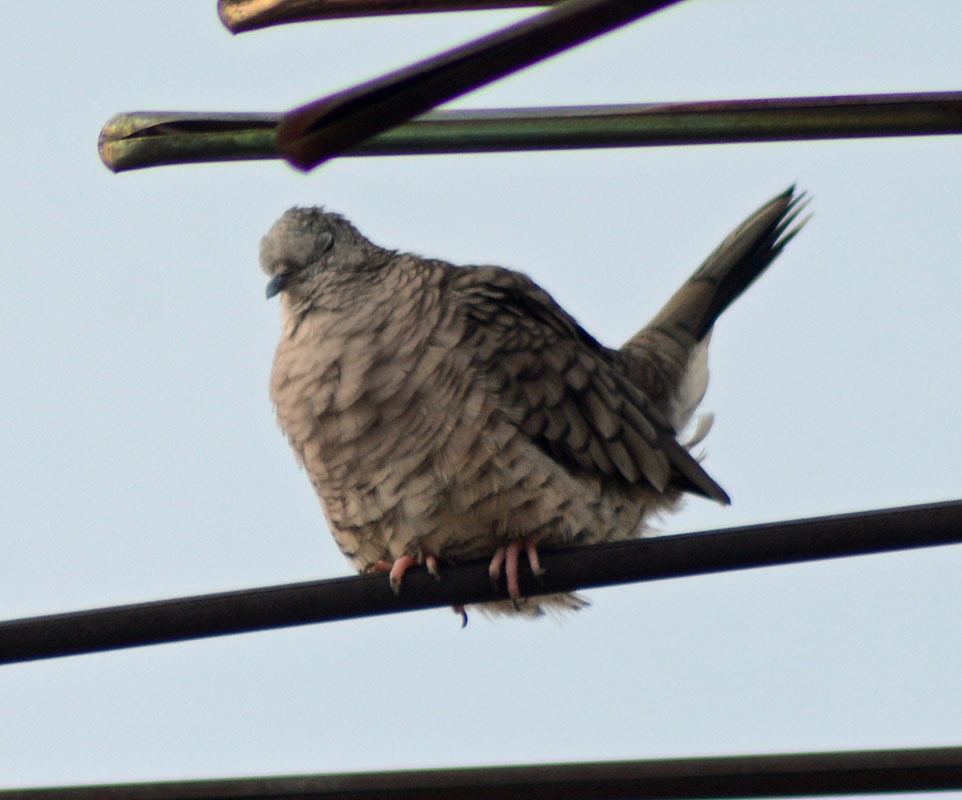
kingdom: Animalia
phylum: Chordata
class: Aves
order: Columbiformes
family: Columbidae
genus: Columbina
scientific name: Columbina inca
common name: Inca dove
